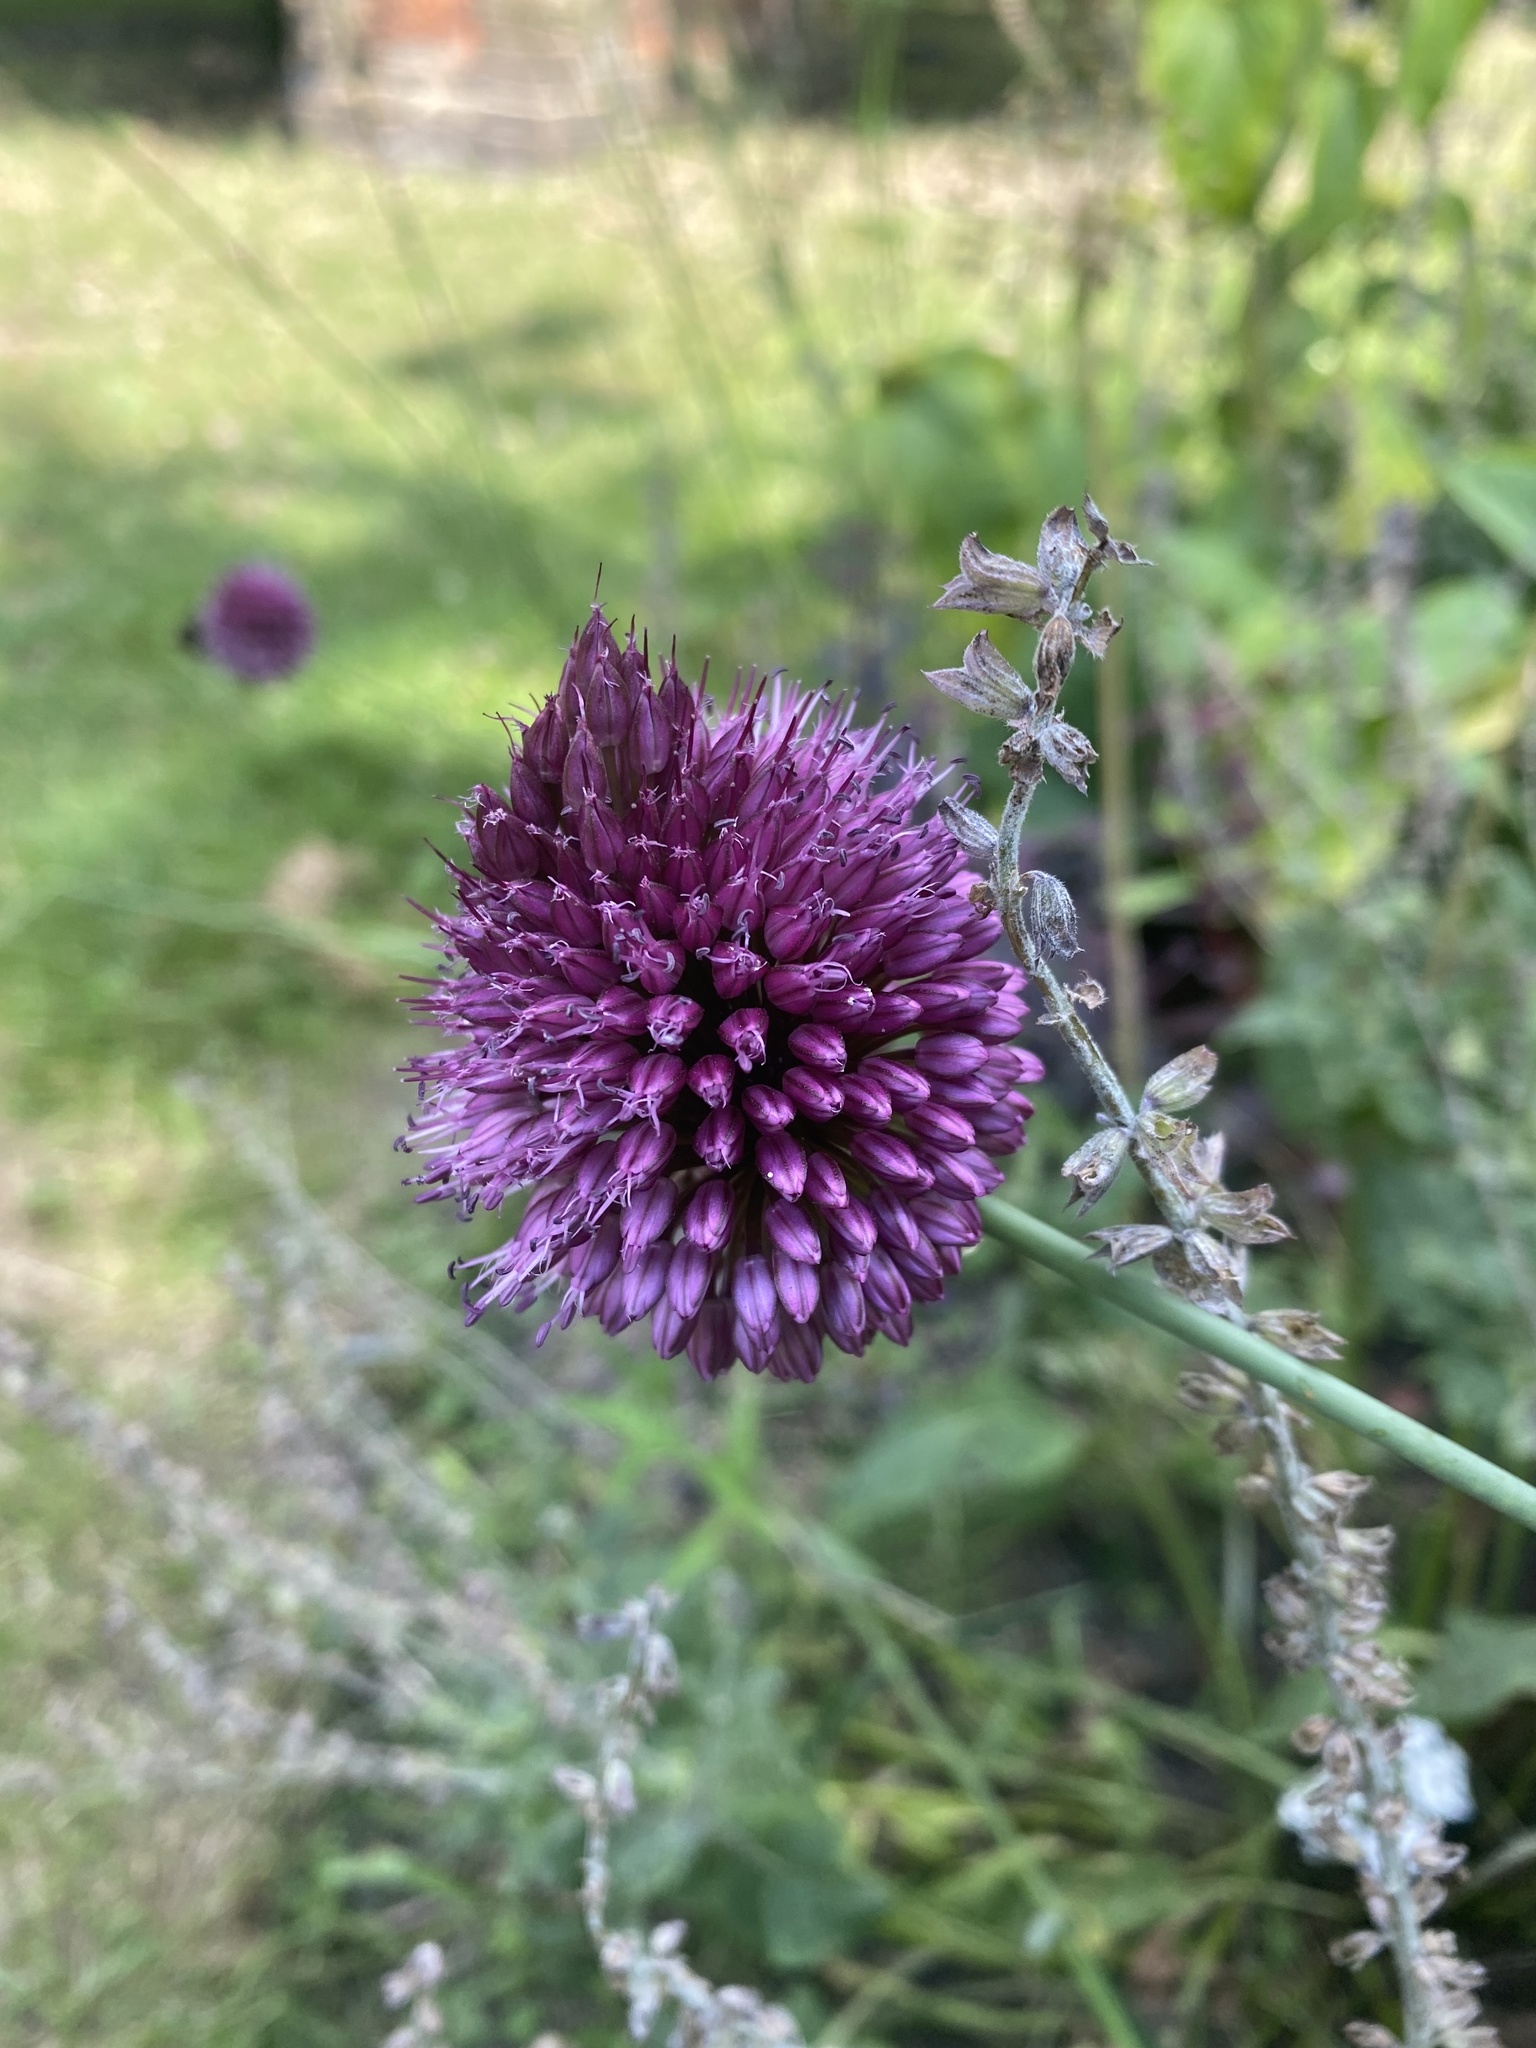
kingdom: Plantae
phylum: Tracheophyta
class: Liliopsida
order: Asparagales
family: Amaryllidaceae
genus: Allium
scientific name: Allium sphaerocephalon
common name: Round-headed leek
